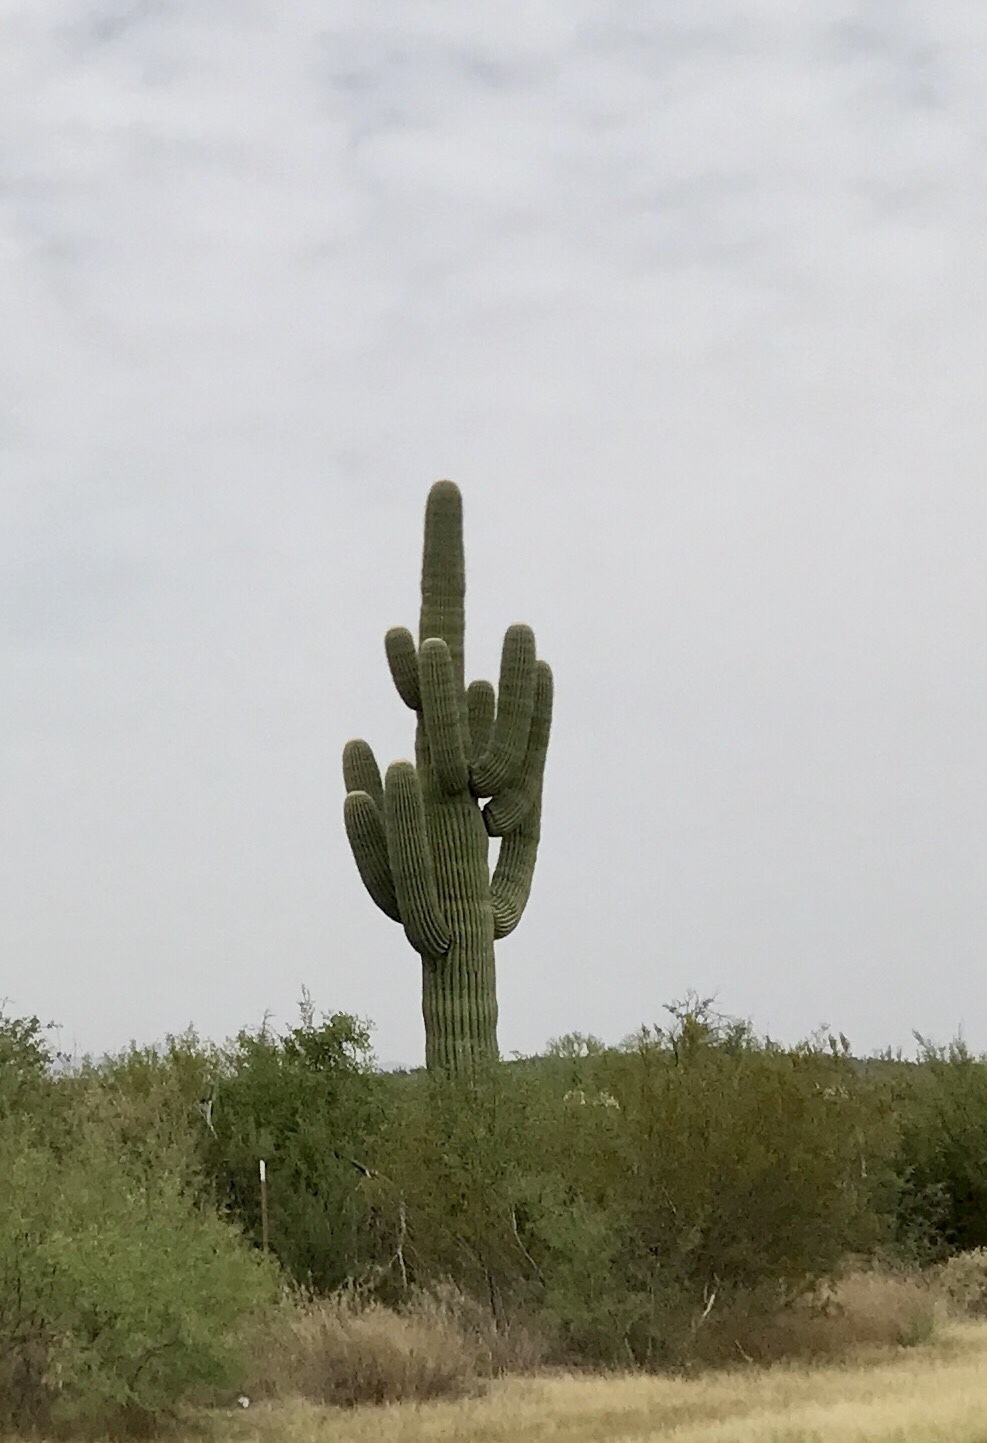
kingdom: Plantae
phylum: Tracheophyta
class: Magnoliopsida
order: Caryophyllales
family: Cactaceae
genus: Carnegiea
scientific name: Carnegiea gigantea
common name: Saguaro
